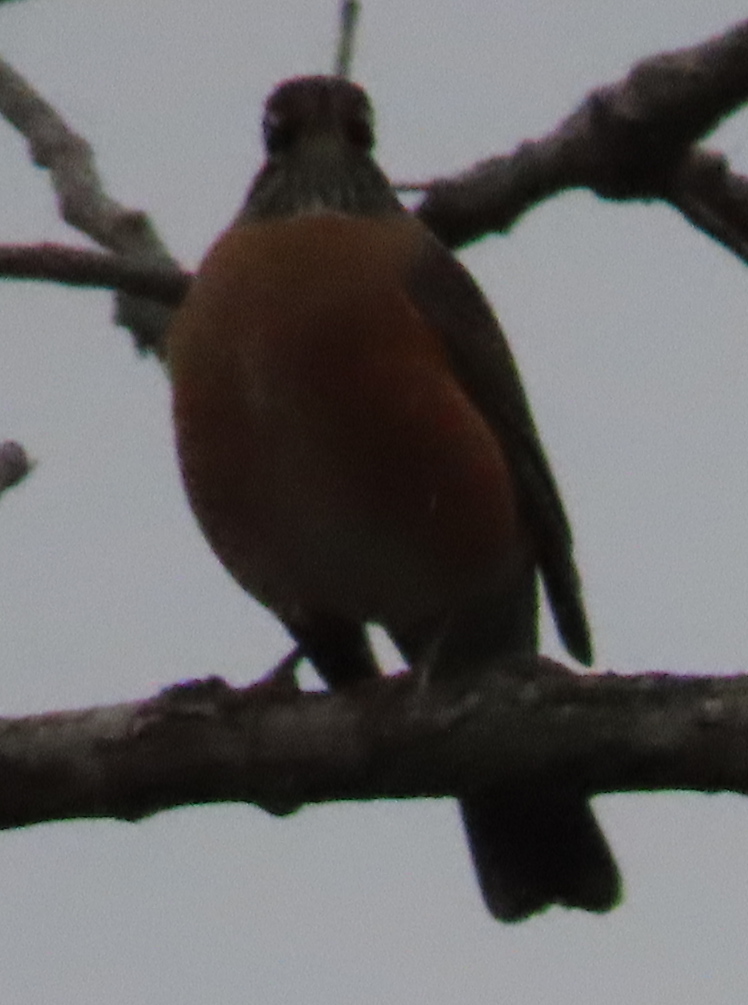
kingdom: Animalia
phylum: Chordata
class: Aves
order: Passeriformes
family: Turdidae
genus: Turdus
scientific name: Turdus migratorius
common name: American robin
